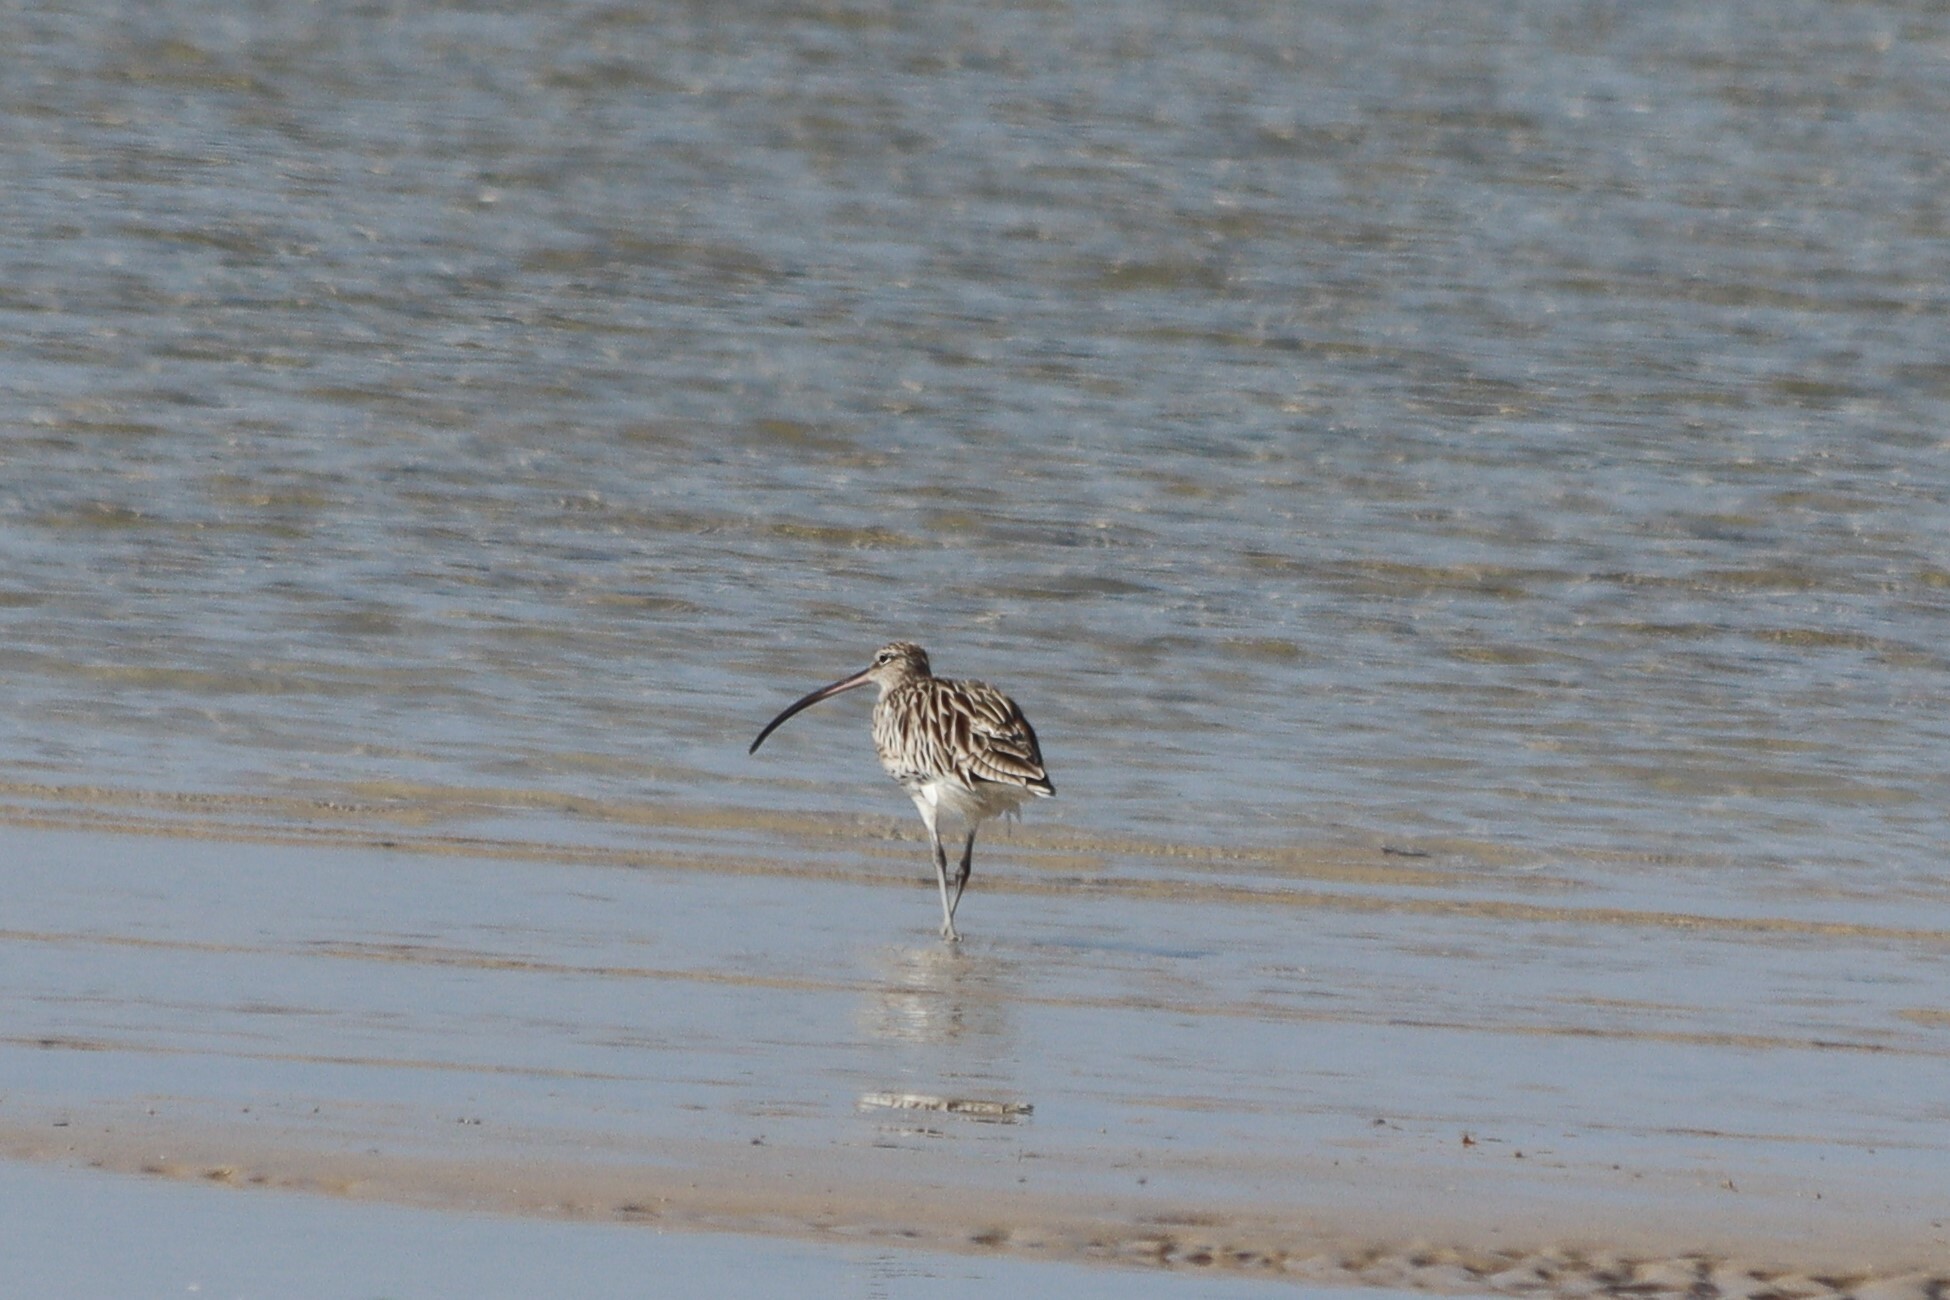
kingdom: Animalia
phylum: Chordata
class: Aves
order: Charadriiformes
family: Scolopacidae
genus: Numenius
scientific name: Numenius arquata
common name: Eurasian curlew
